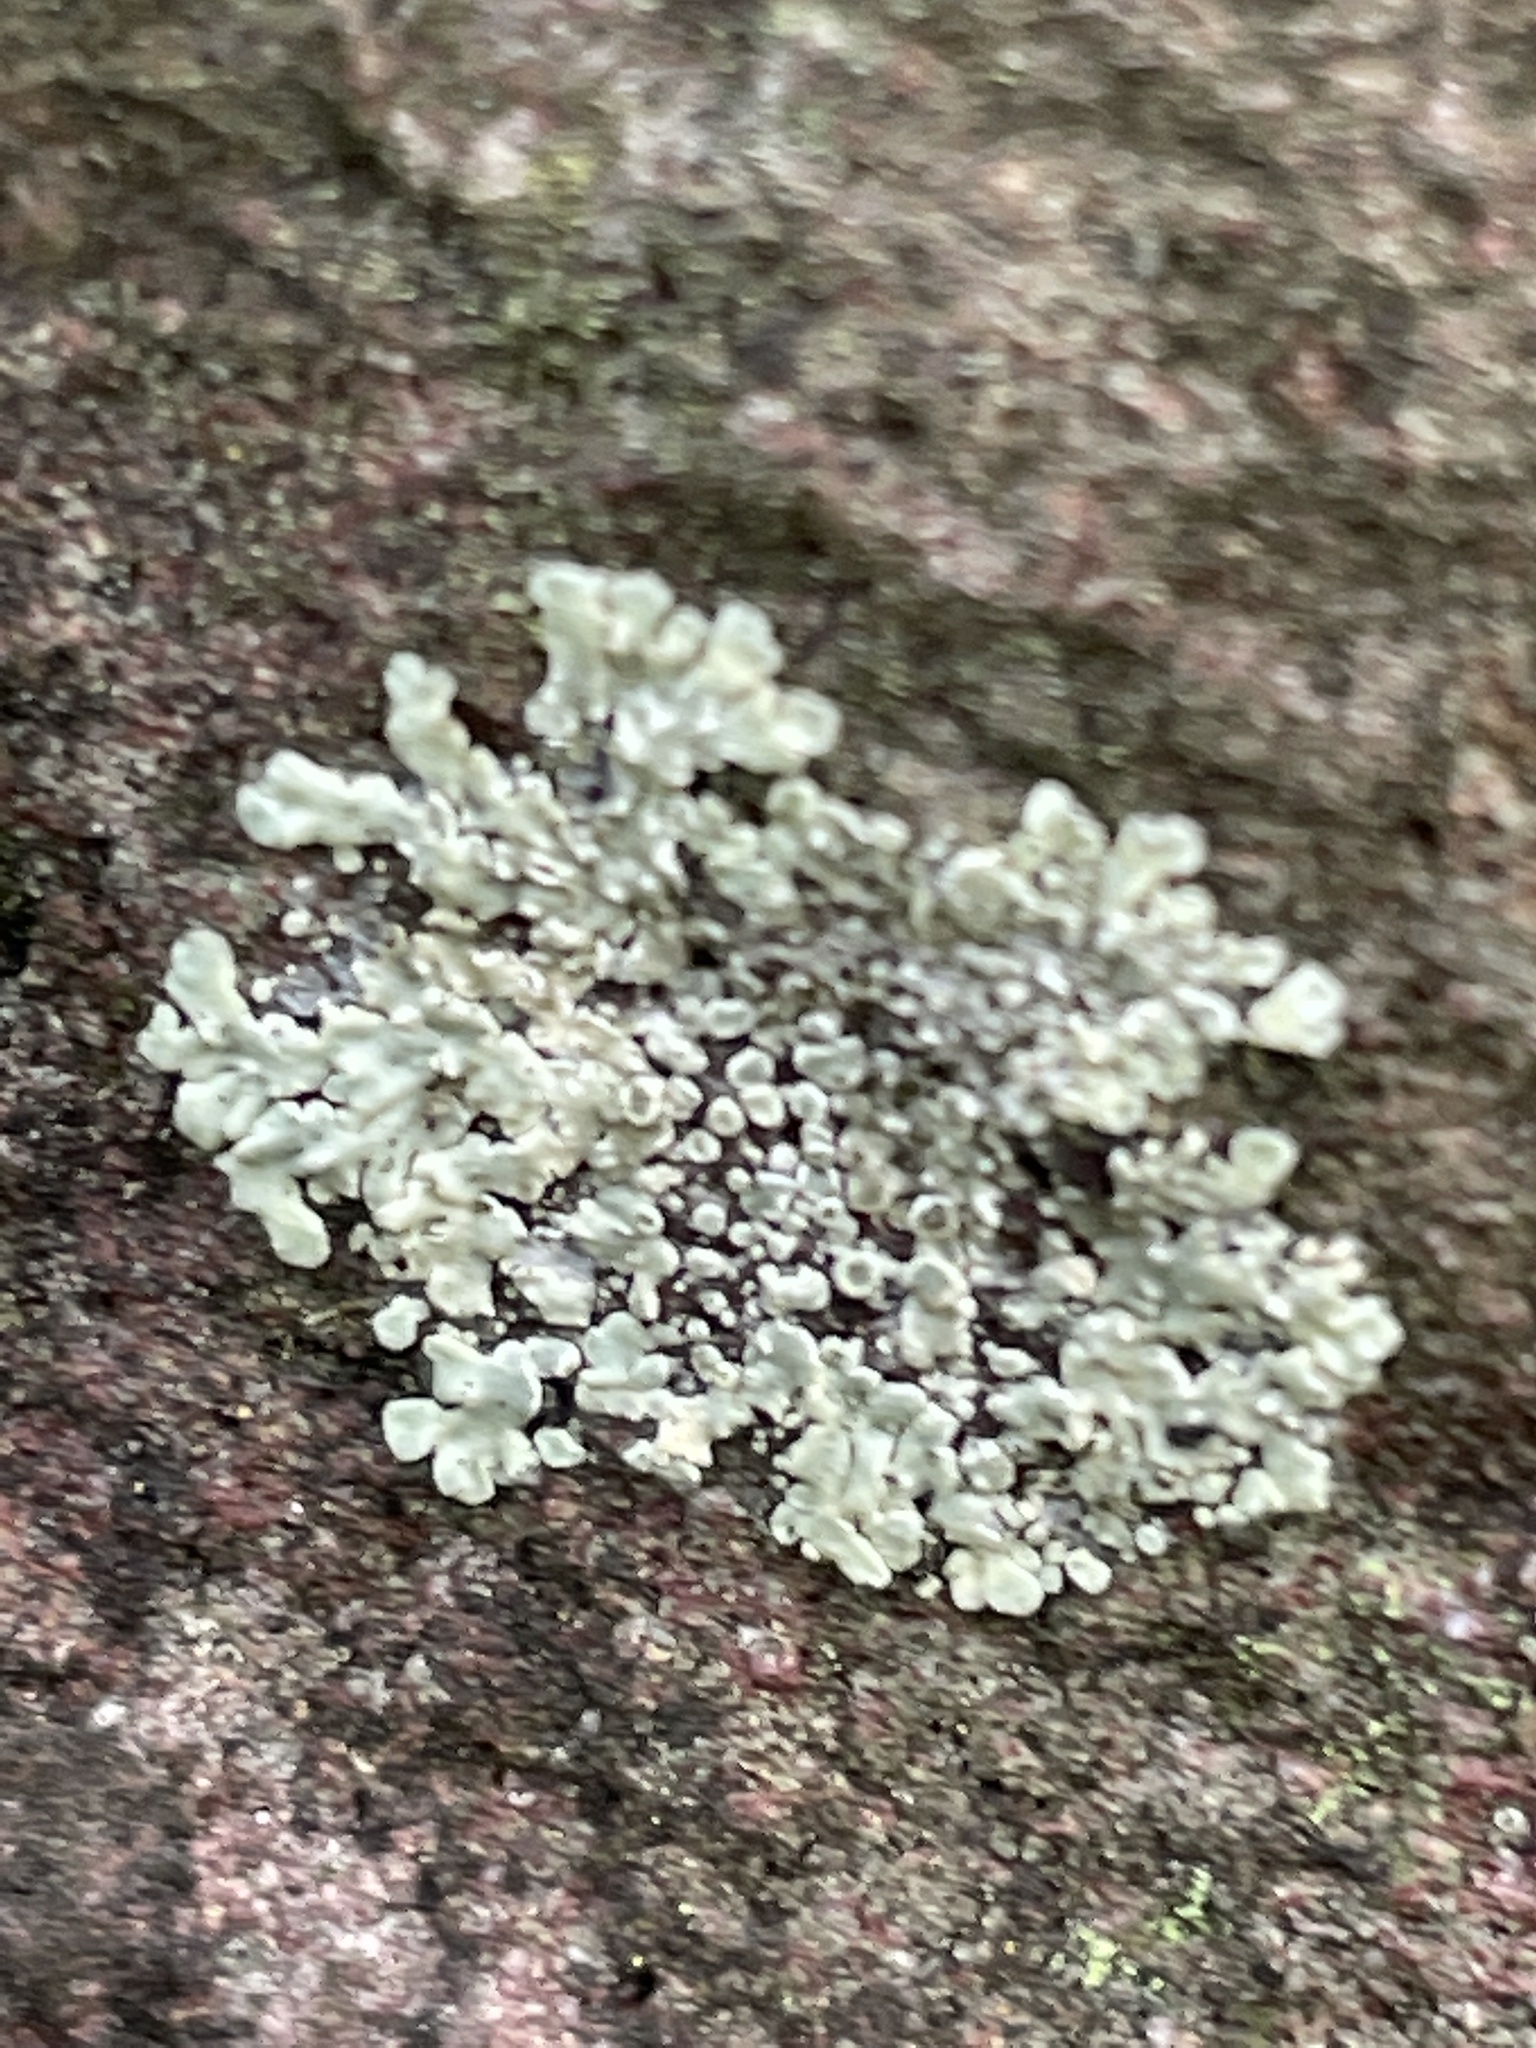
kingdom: Fungi
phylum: Ascomycota
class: Lecanoromycetes
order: Lecanorales
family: Lecanoraceae
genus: Protoparmeliopsis
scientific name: Protoparmeliopsis muralis
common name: Stonewall rim lichen
